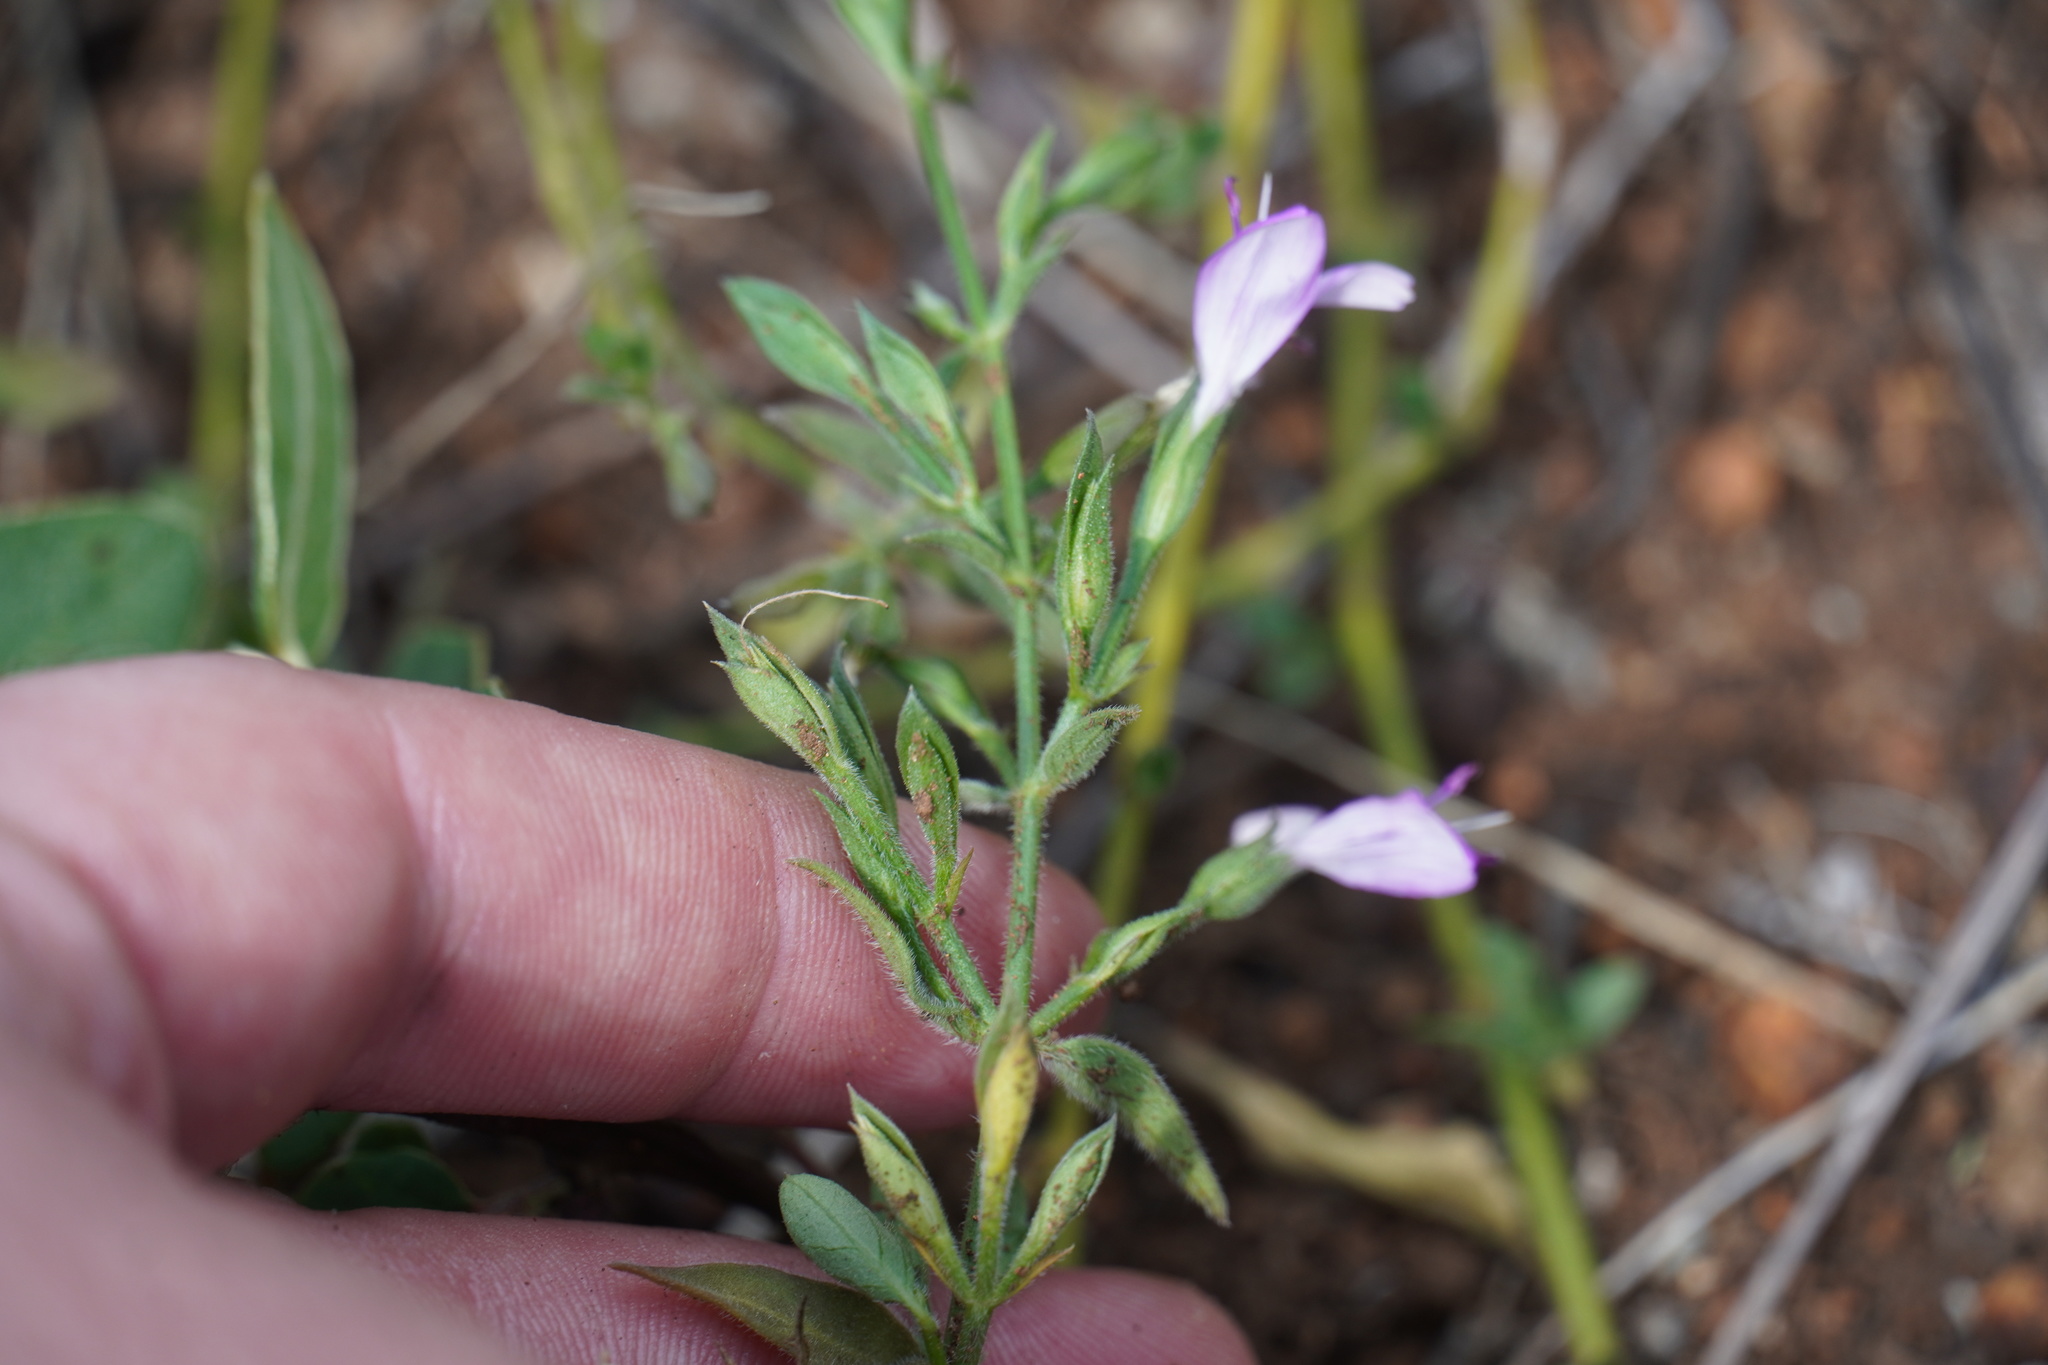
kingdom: Plantae
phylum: Tracheophyta
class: Magnoliopsida
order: Lamiales
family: Acanthaceae
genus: Dicliptera
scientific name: Dicliptera minor
